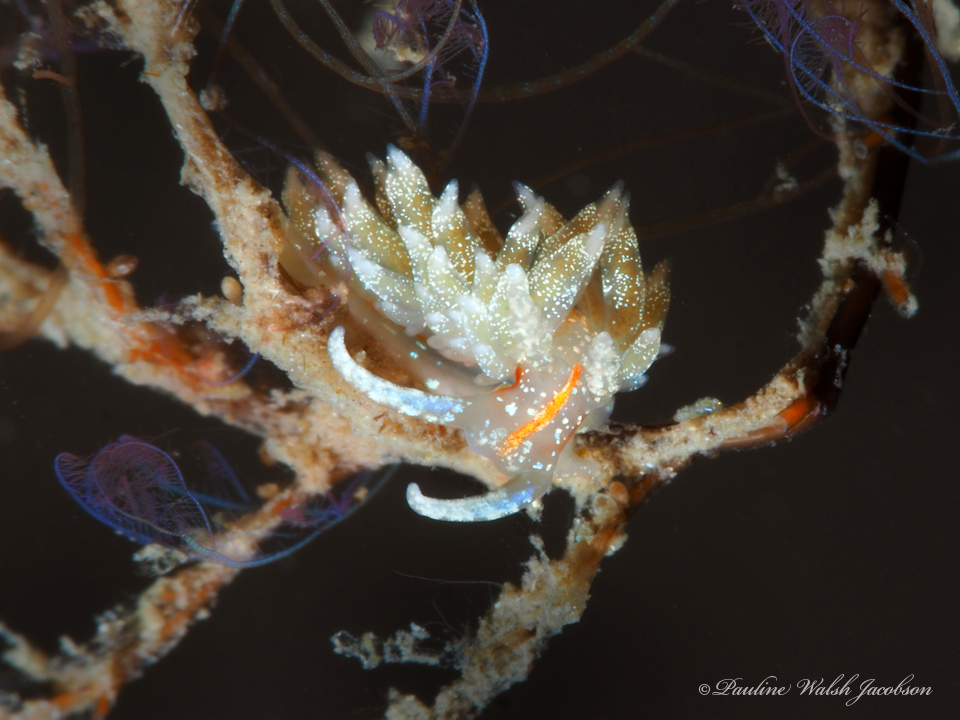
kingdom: Animalia
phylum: Mollusca
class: Gastropoda
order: Nudibranchia
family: Myrrhinidae
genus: Dondice
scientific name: Dondice juansanchezi
